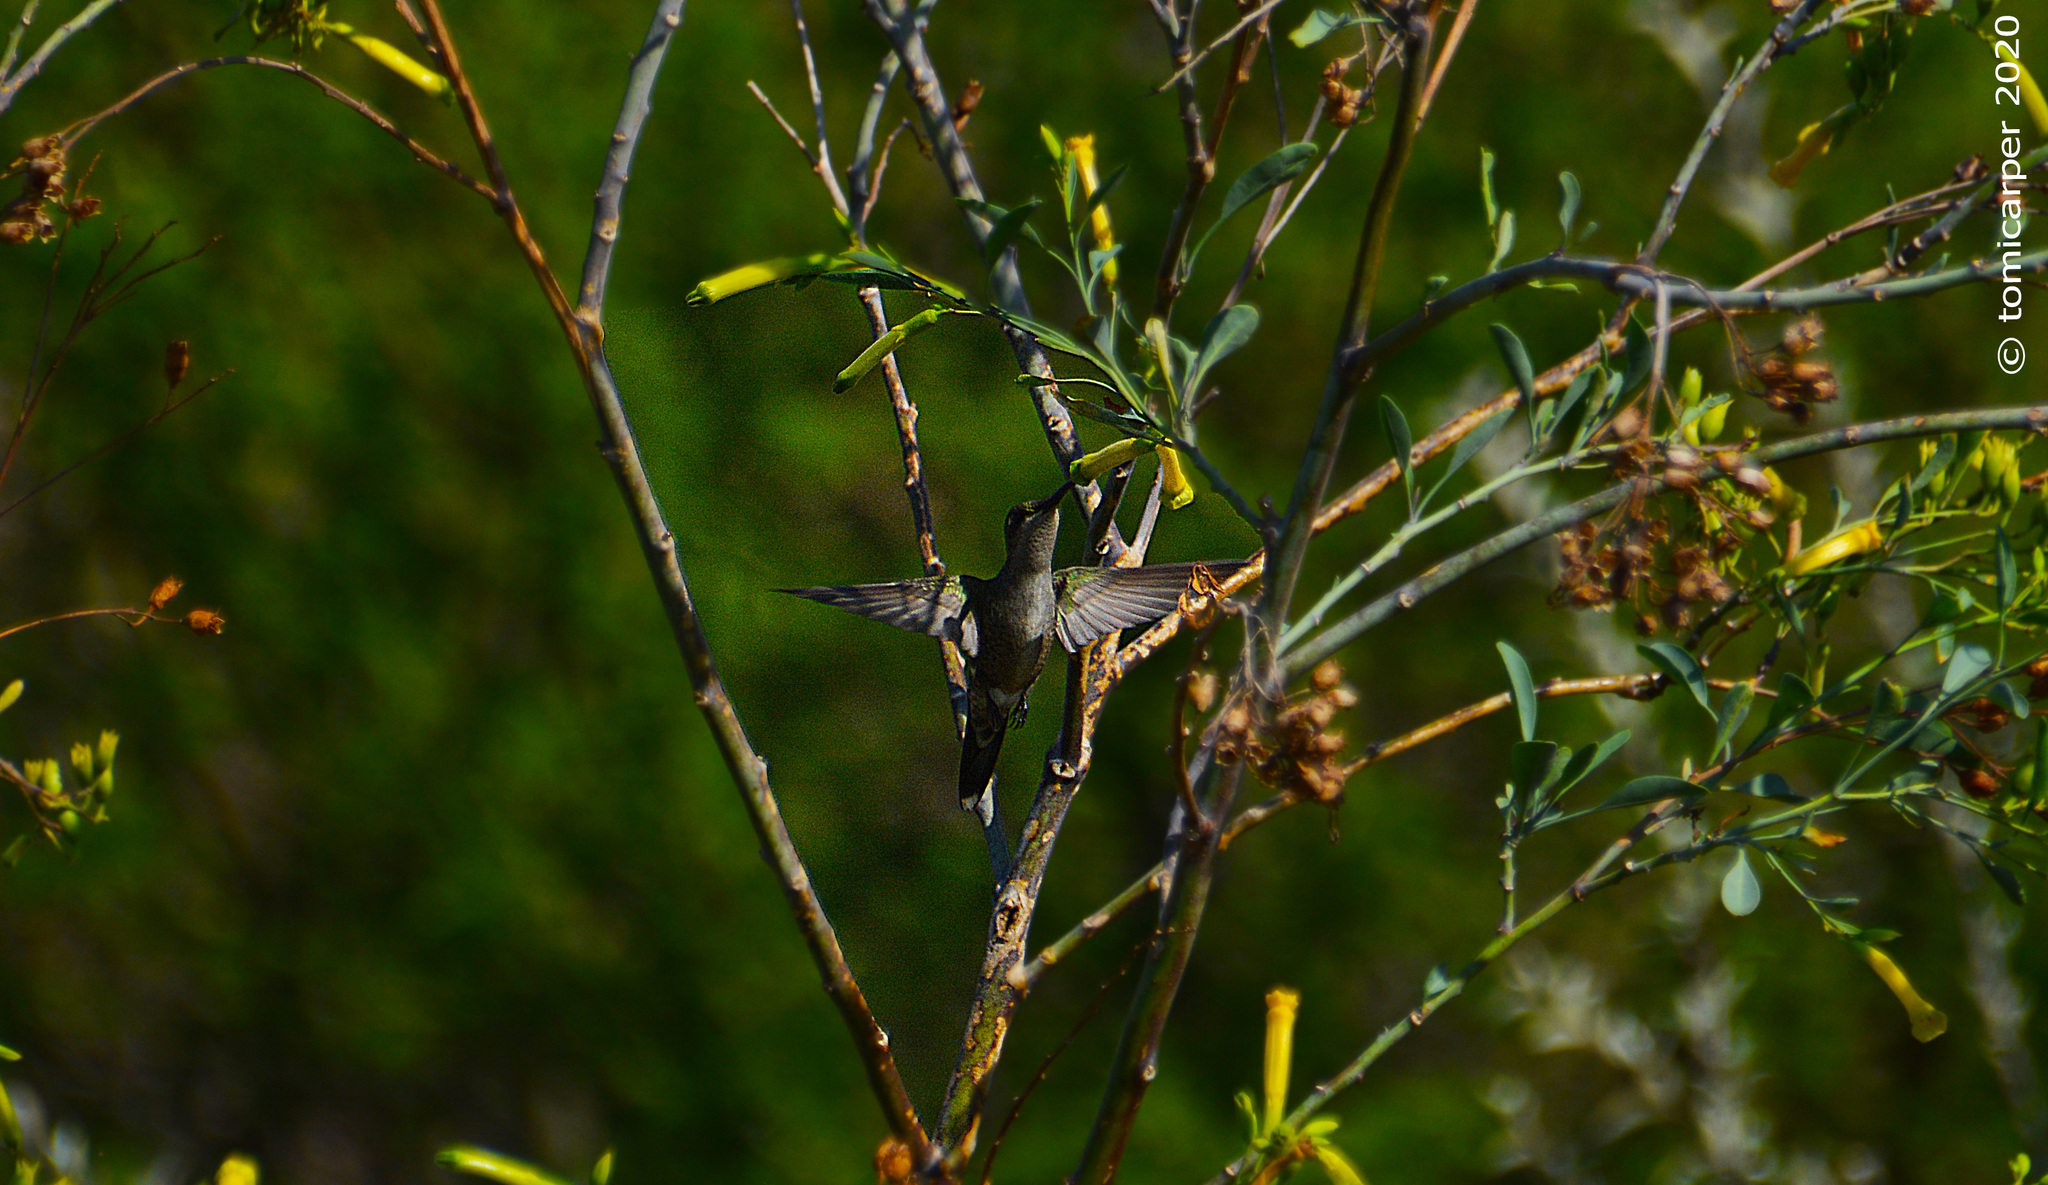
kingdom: Animalia
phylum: Chordata
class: Aves
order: Apodiformes
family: Trochilidae
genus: Heliomaster
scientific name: Heliomaster furcifer
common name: Blue-tufted starthroat
